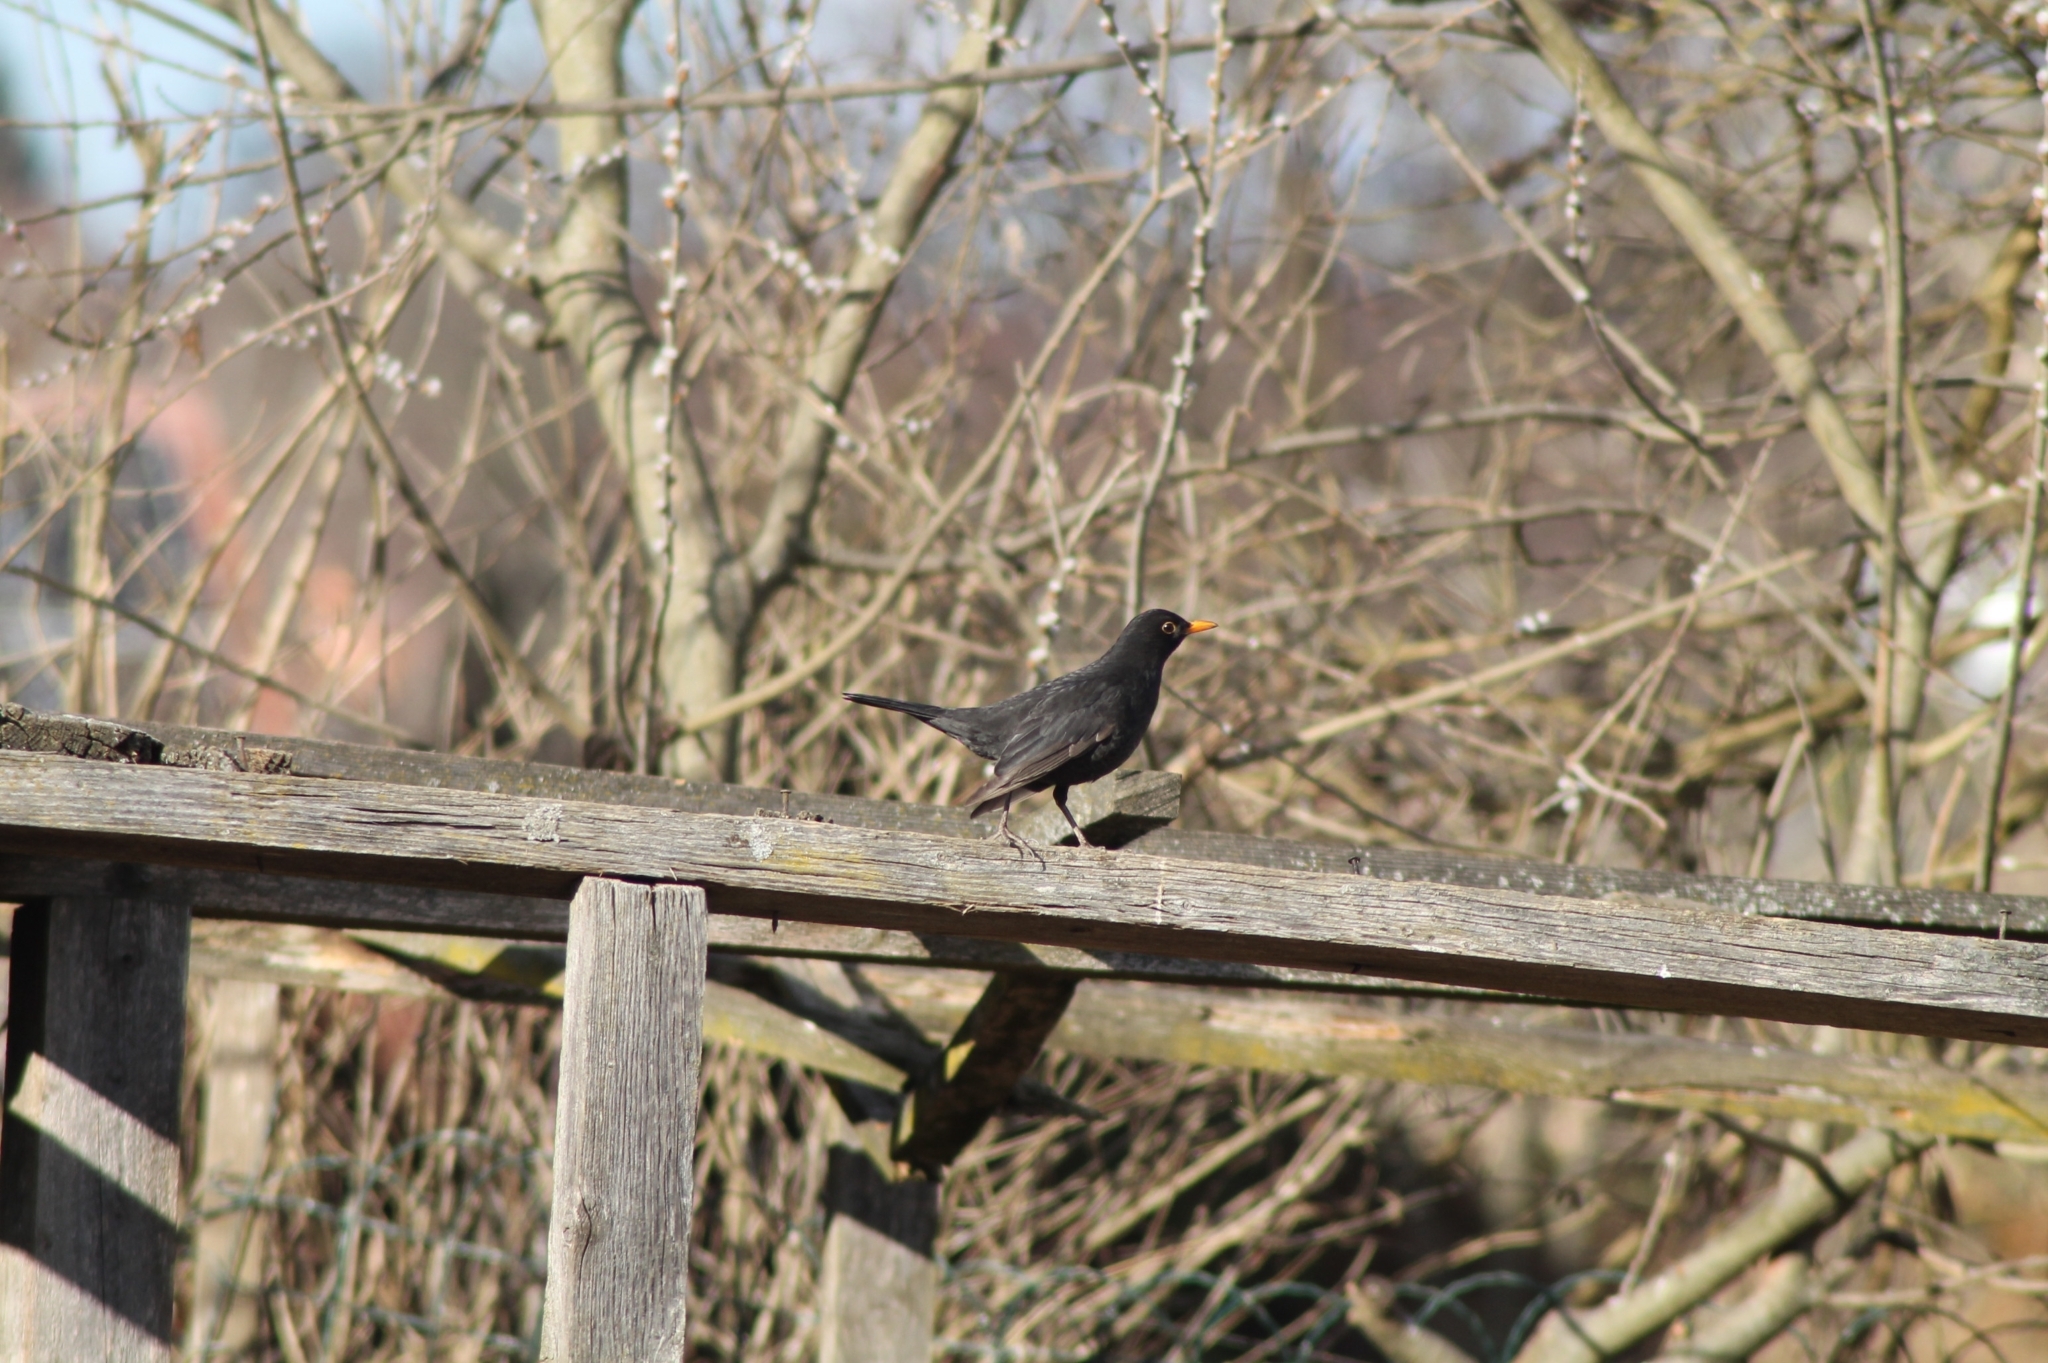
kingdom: Animalia
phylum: Chordata
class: Aves
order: Passeriformes
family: Turdidae
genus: Turdus
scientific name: Turdus merula
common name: Common blackbird
